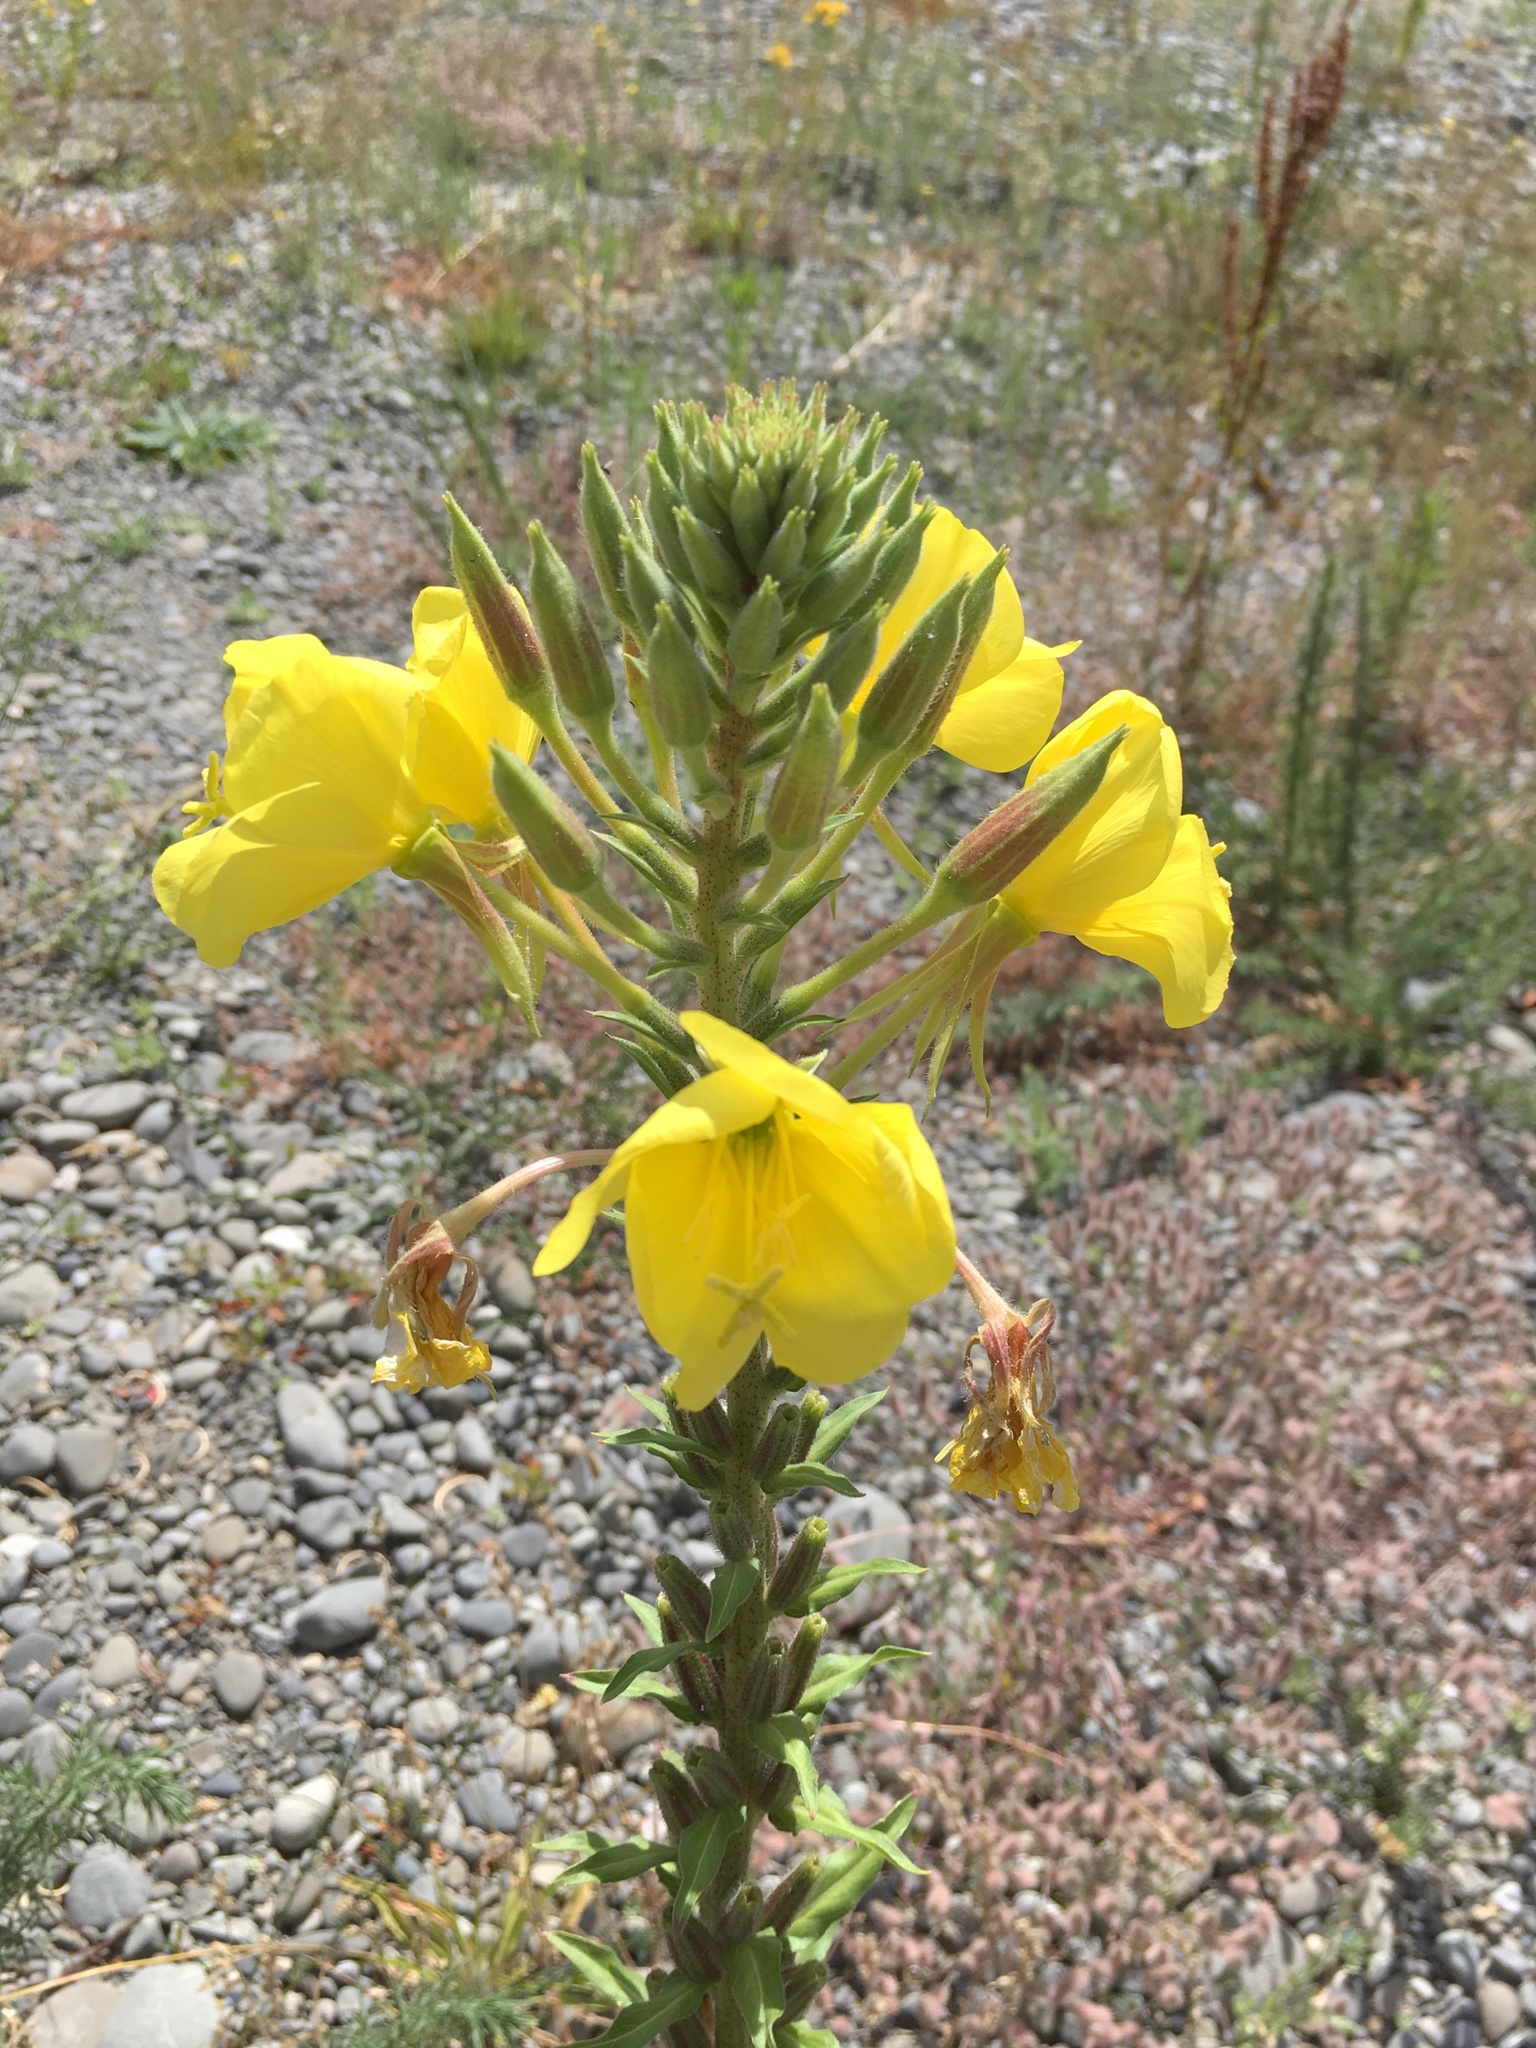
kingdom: Plantae
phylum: Tracheophyta
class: Magnoliopsida
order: Myrtales
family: Onagraceae
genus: Oenothera
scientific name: Oenothera stricta
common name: Fragrant evening-primrose
